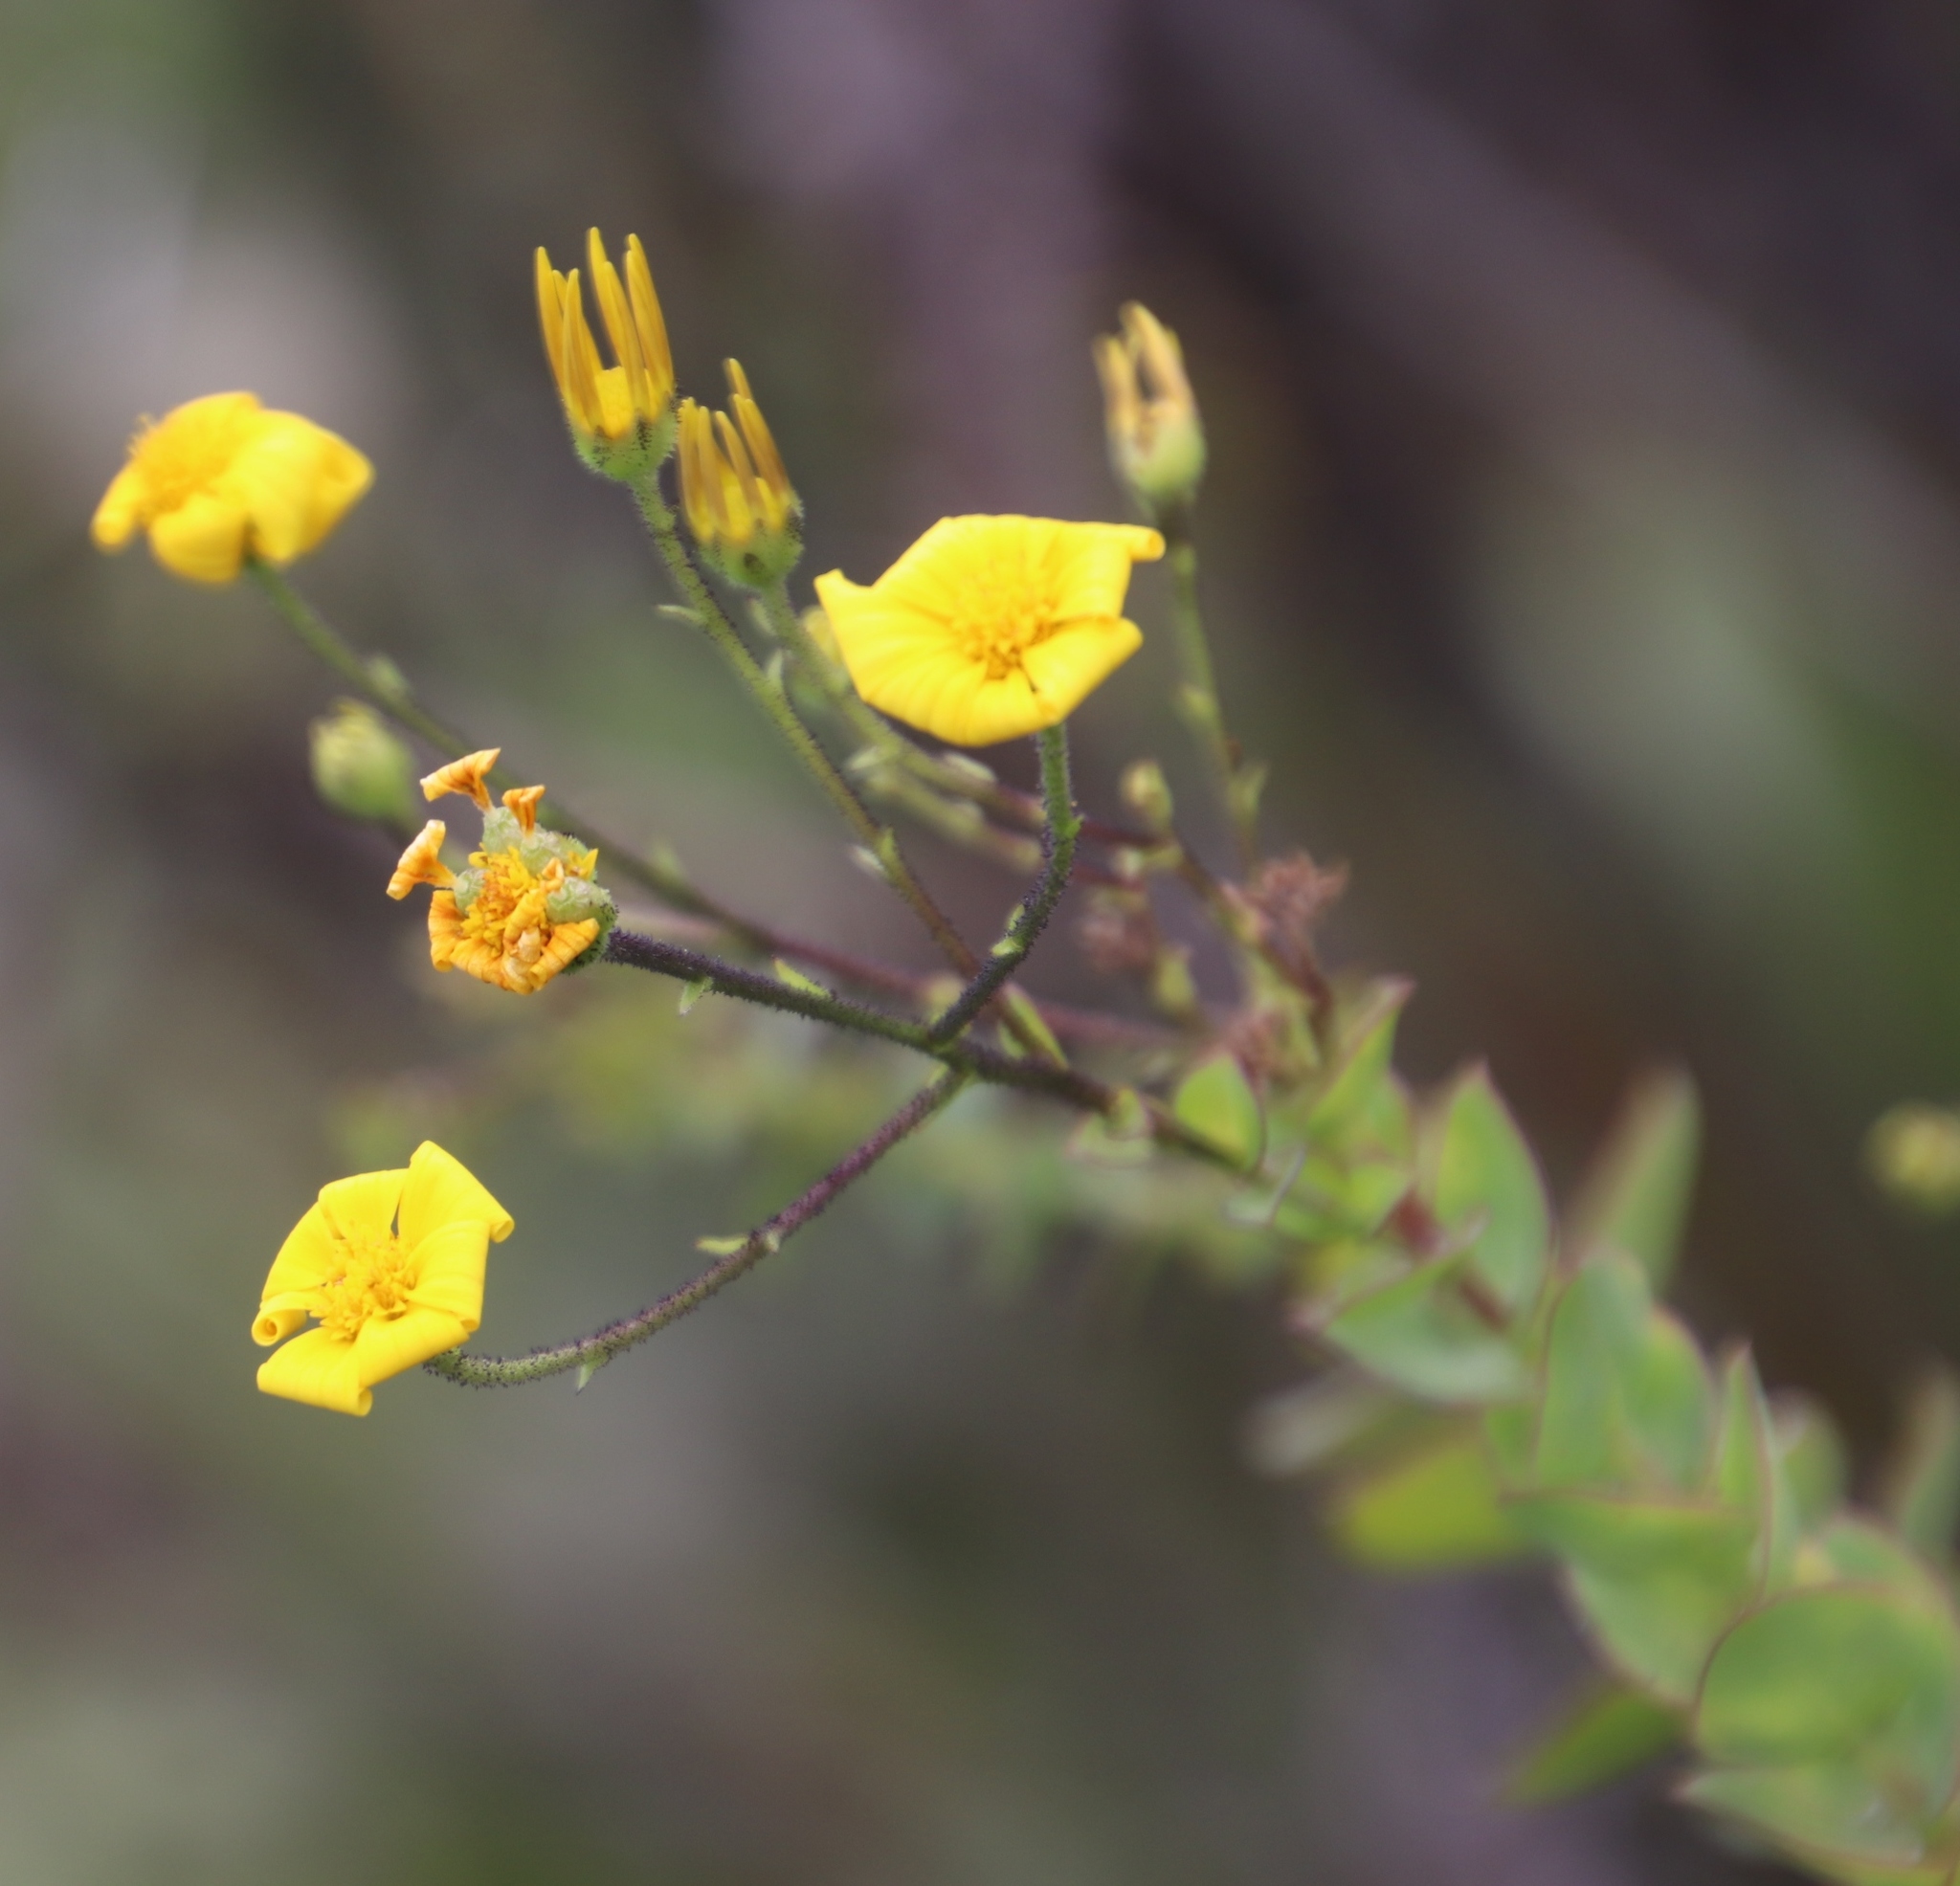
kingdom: Plantae
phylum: Tracheophyta
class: Magnoliopsida
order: Asterales
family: Asteraceae
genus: Osteospermum
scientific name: Osteospermum rotundifolium
